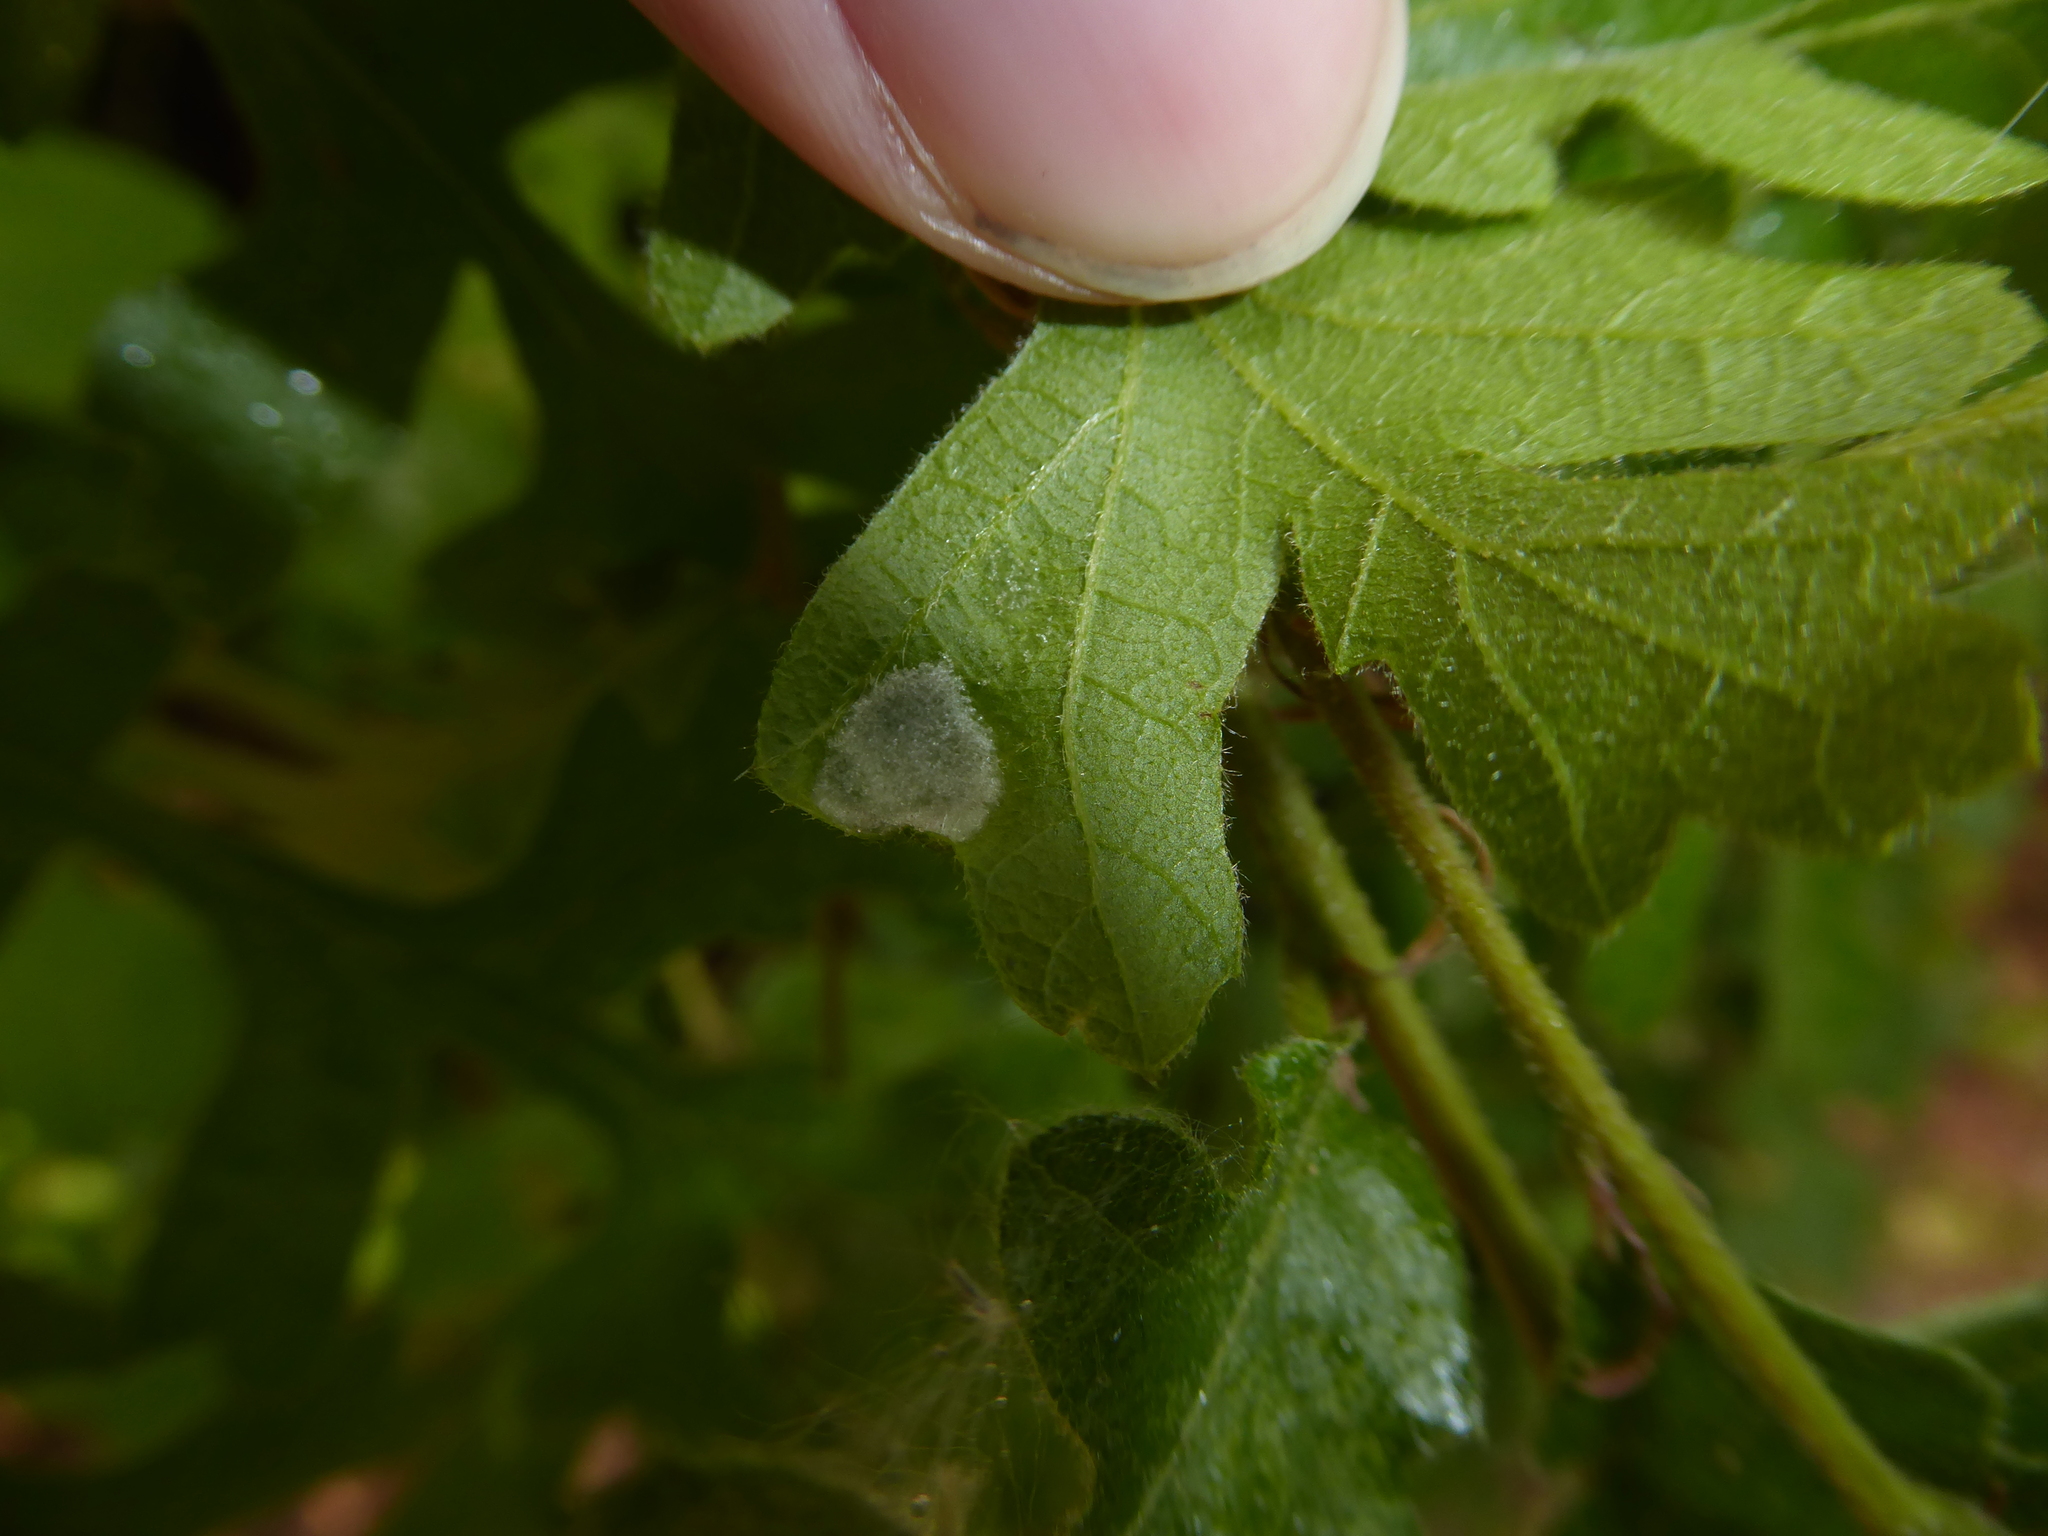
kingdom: Animalia
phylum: Arthropoda
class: Arachnida
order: Trombidiformes
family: Eriophyidae
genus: Aceria
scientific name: Aceria cerrea
